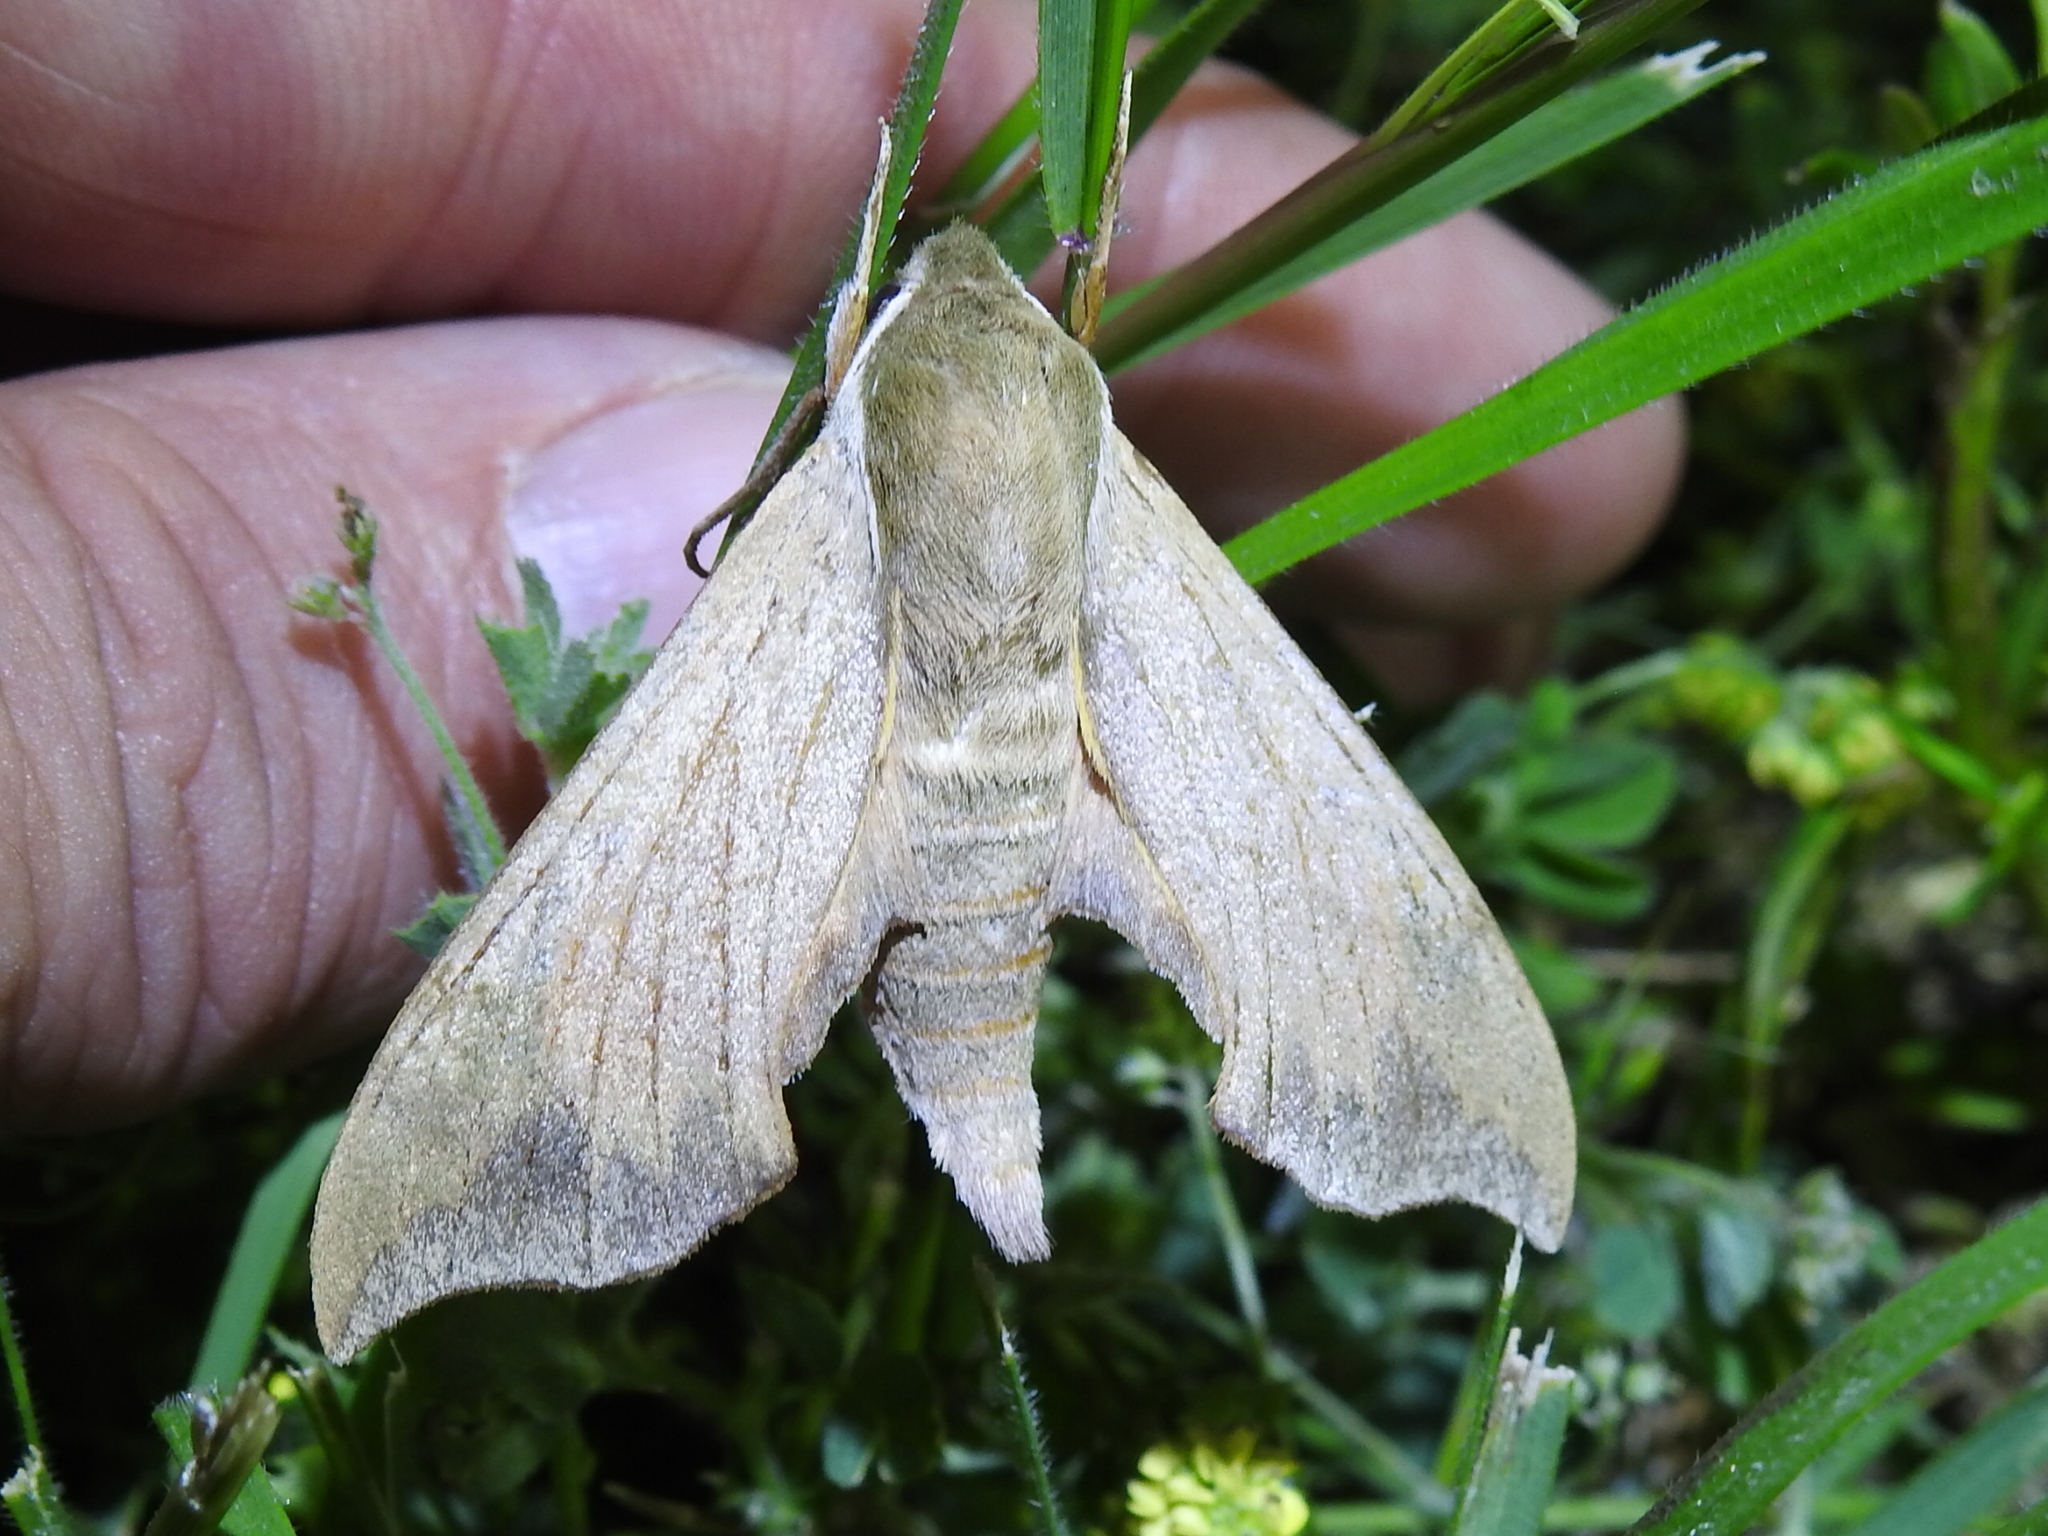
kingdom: Animalia
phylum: Arthropoda
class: Insecta
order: Lepidoptera
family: Sphingidae
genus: Darapsa
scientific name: Darapsa myron
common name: Hog sphinx
